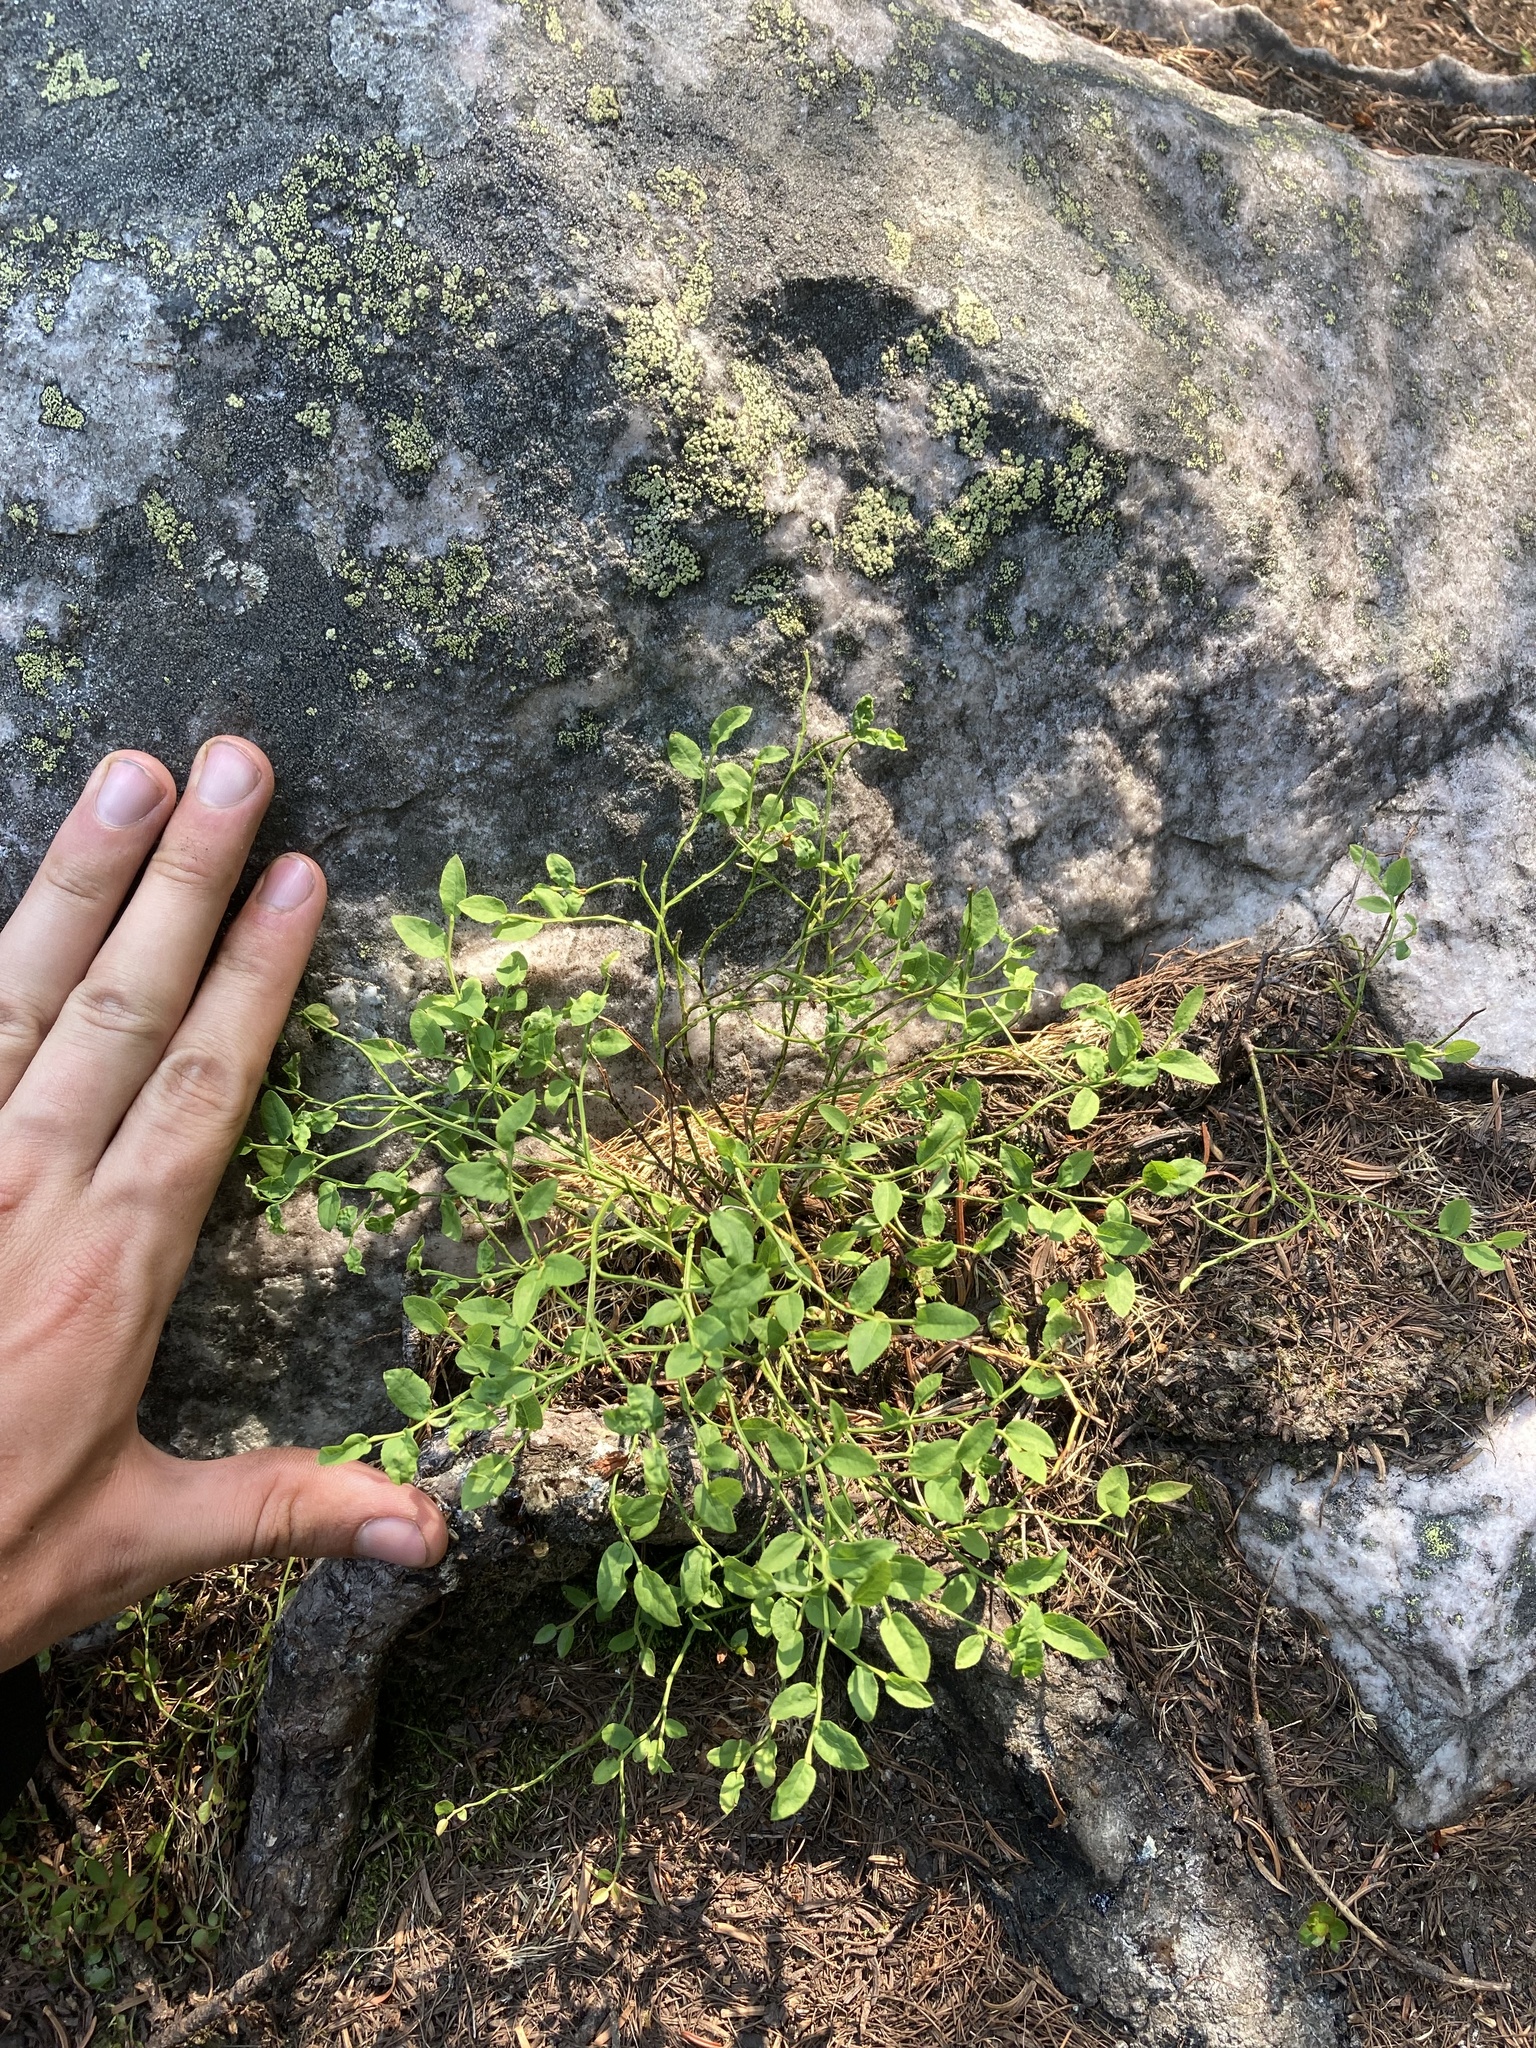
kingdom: Plantae
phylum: Tracheophyta
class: Magnoliopsida
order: Ericales
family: Ericaceae
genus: Vaccinium
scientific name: Vaccinium scoparium
